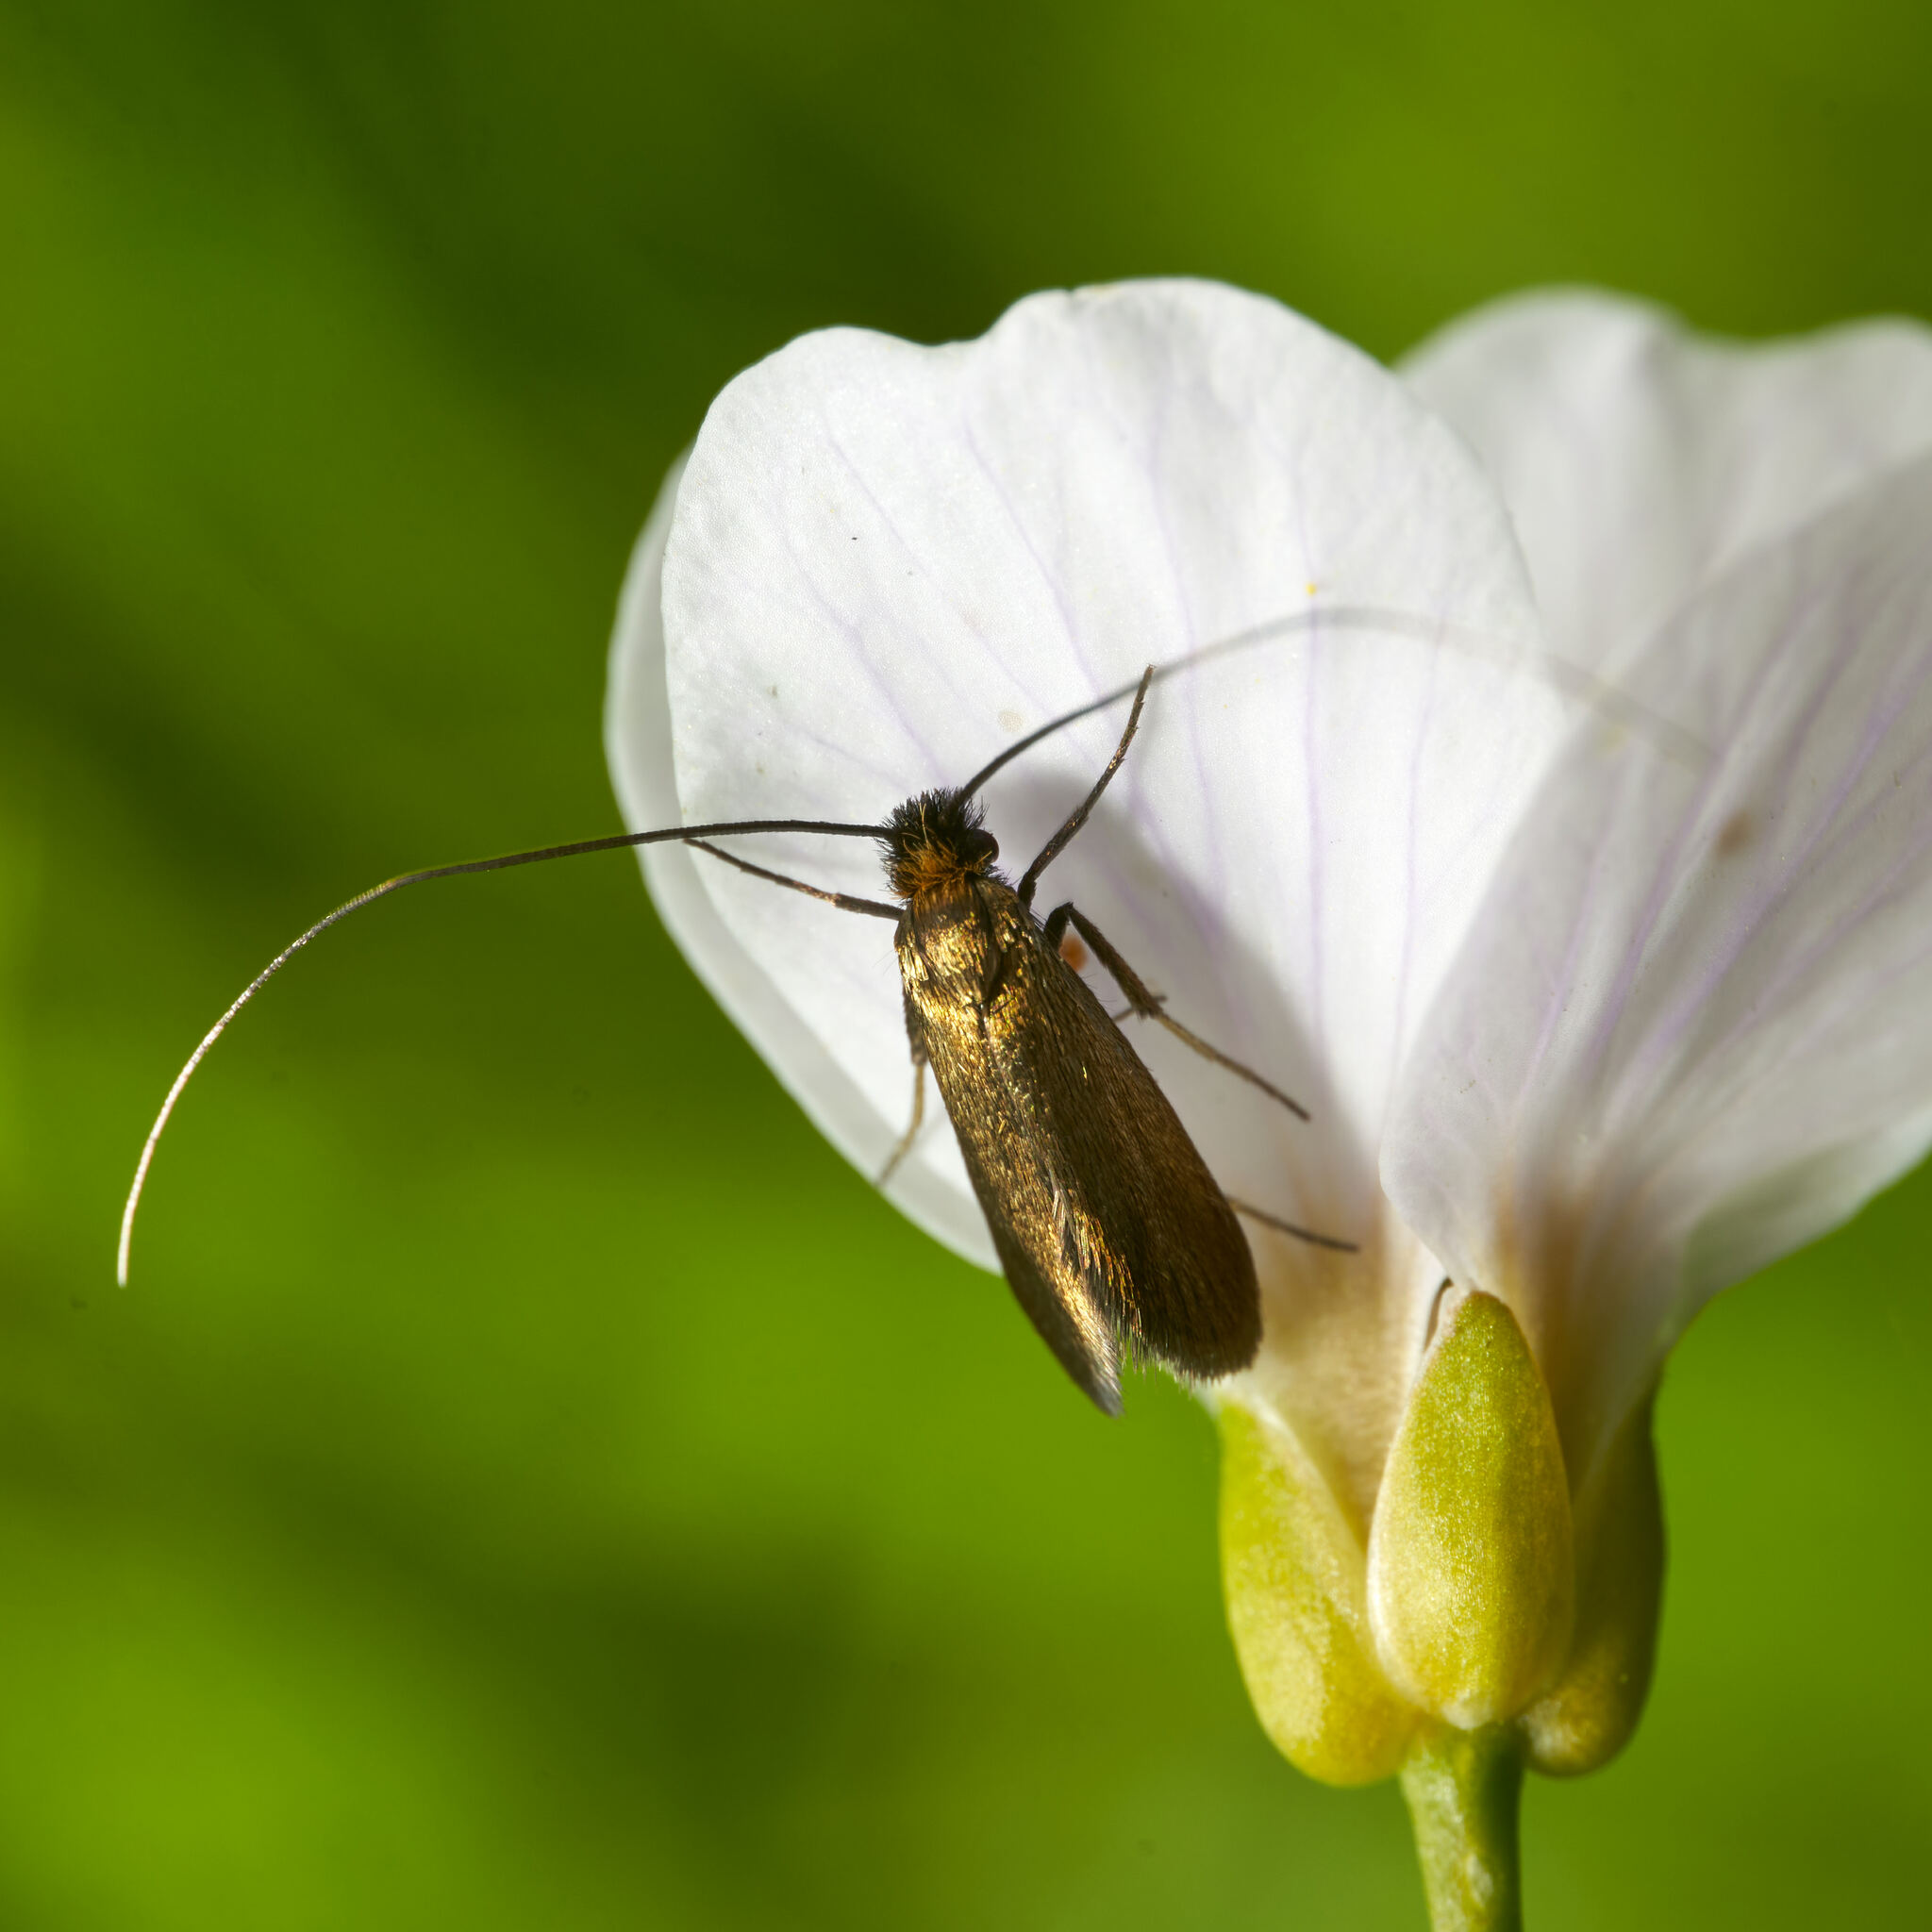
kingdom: Animalia
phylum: Arthropoda
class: Insecta
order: Lepidoptera
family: Adelidae
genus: Cauchas
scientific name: Cauchas rufimitrella
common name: Meadow long-horn
